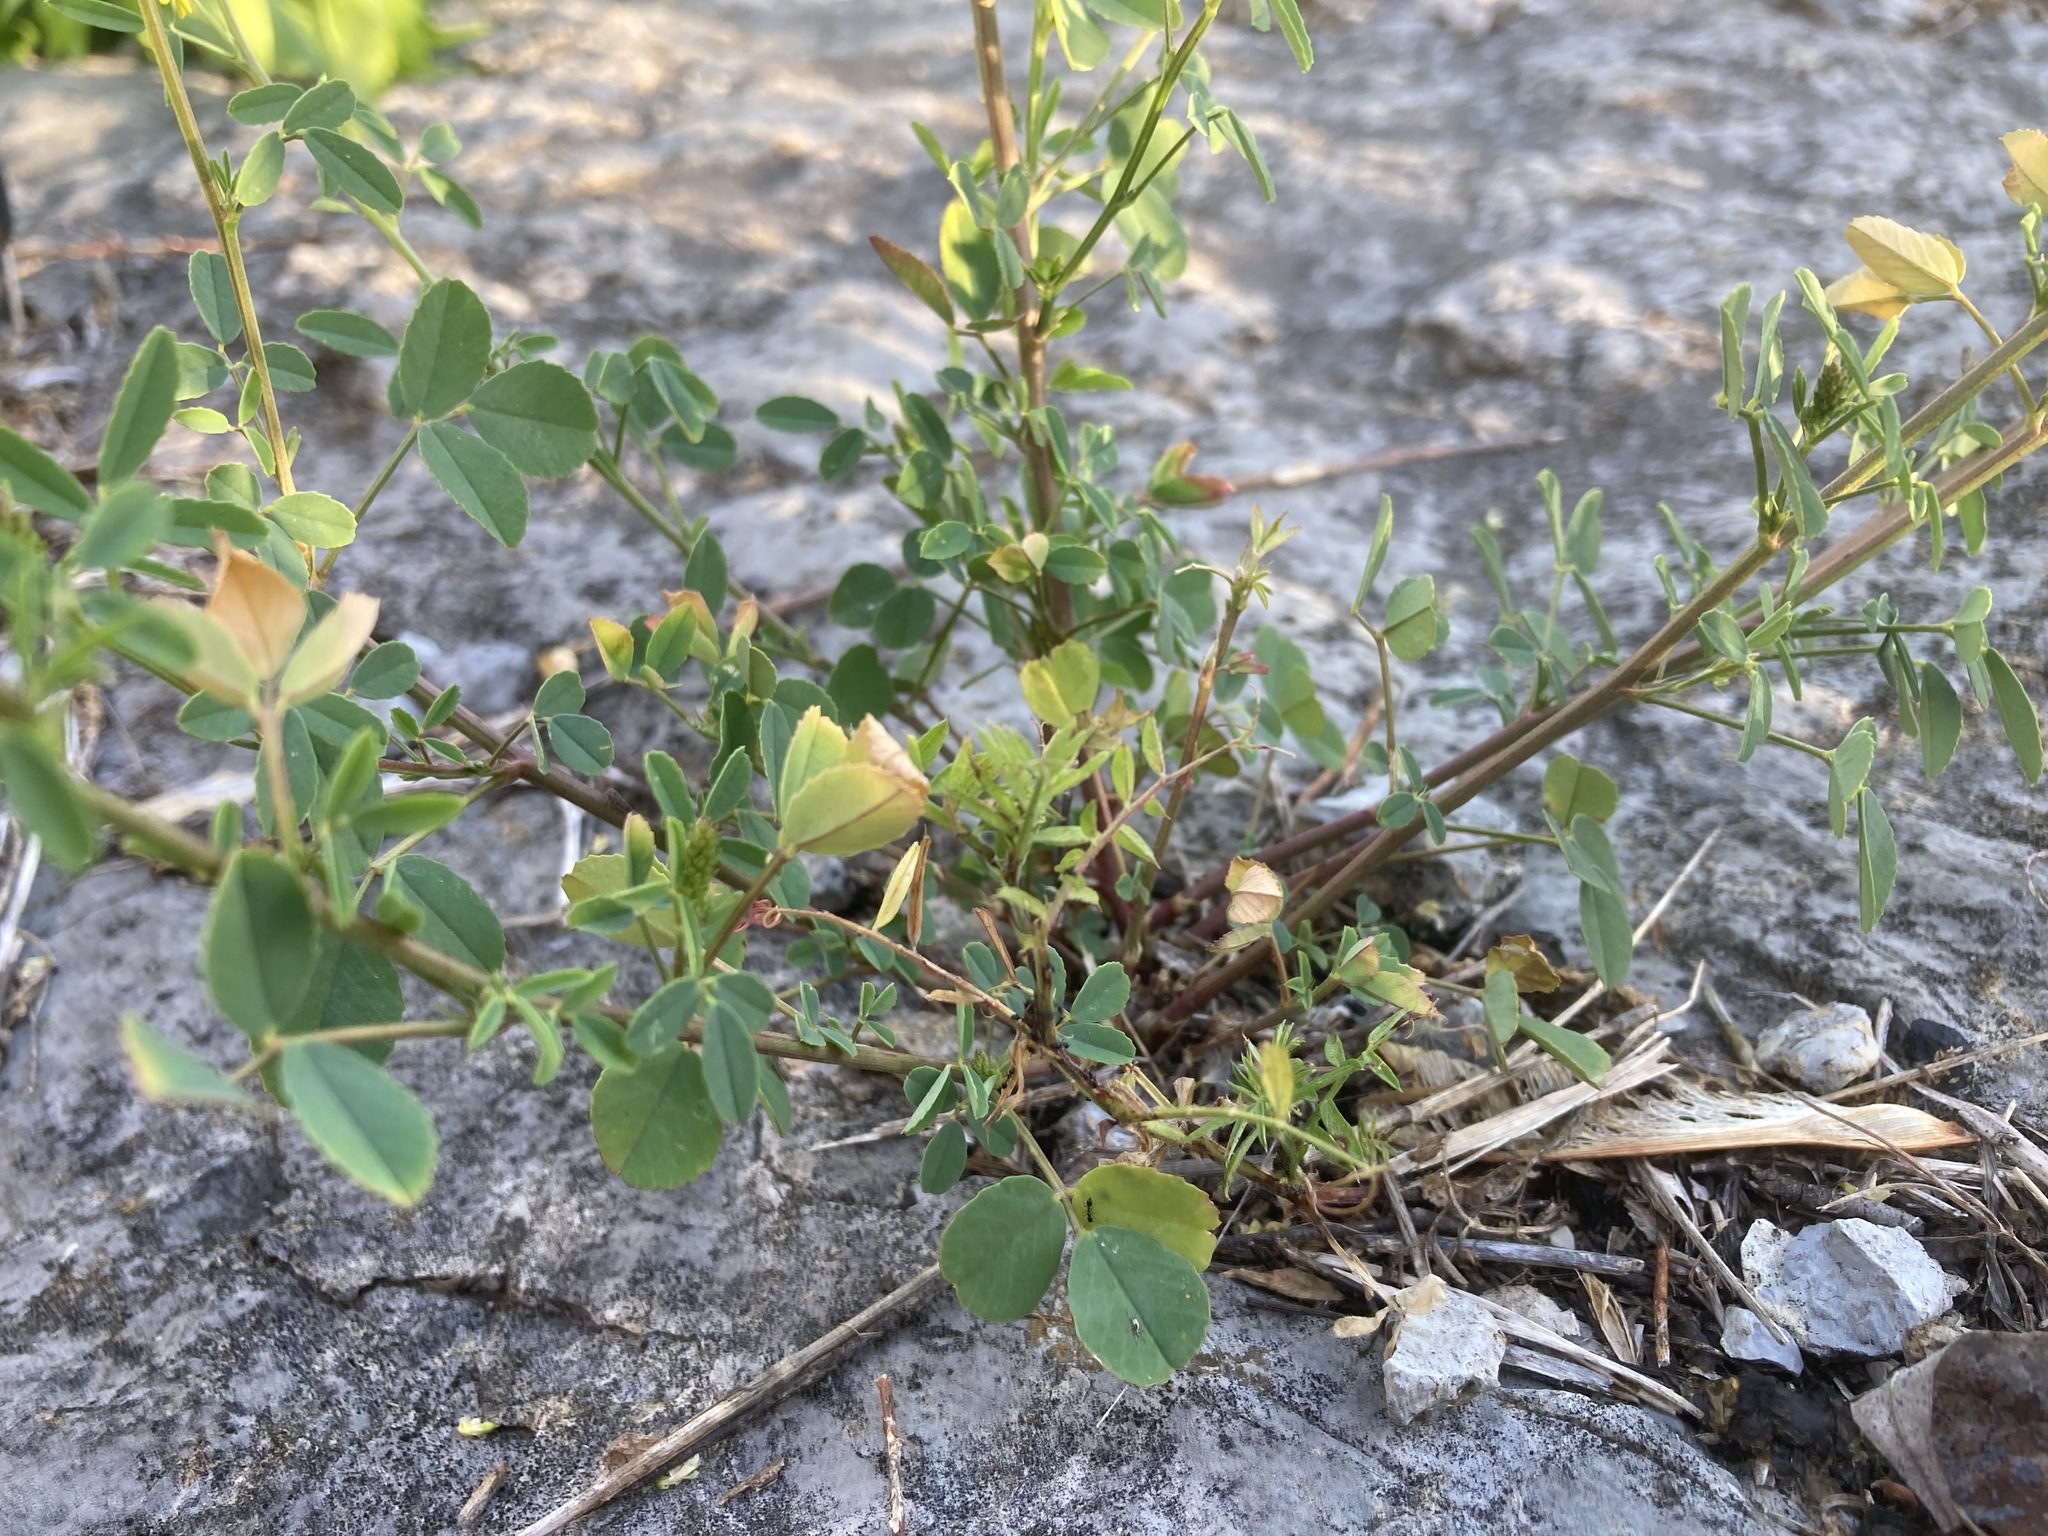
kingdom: Plantae
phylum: Tracheophyta
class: Magnoliopsida
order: Fabales
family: Fabaceae
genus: Melilotus
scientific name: Melilotus officinalis
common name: Sweetclover
